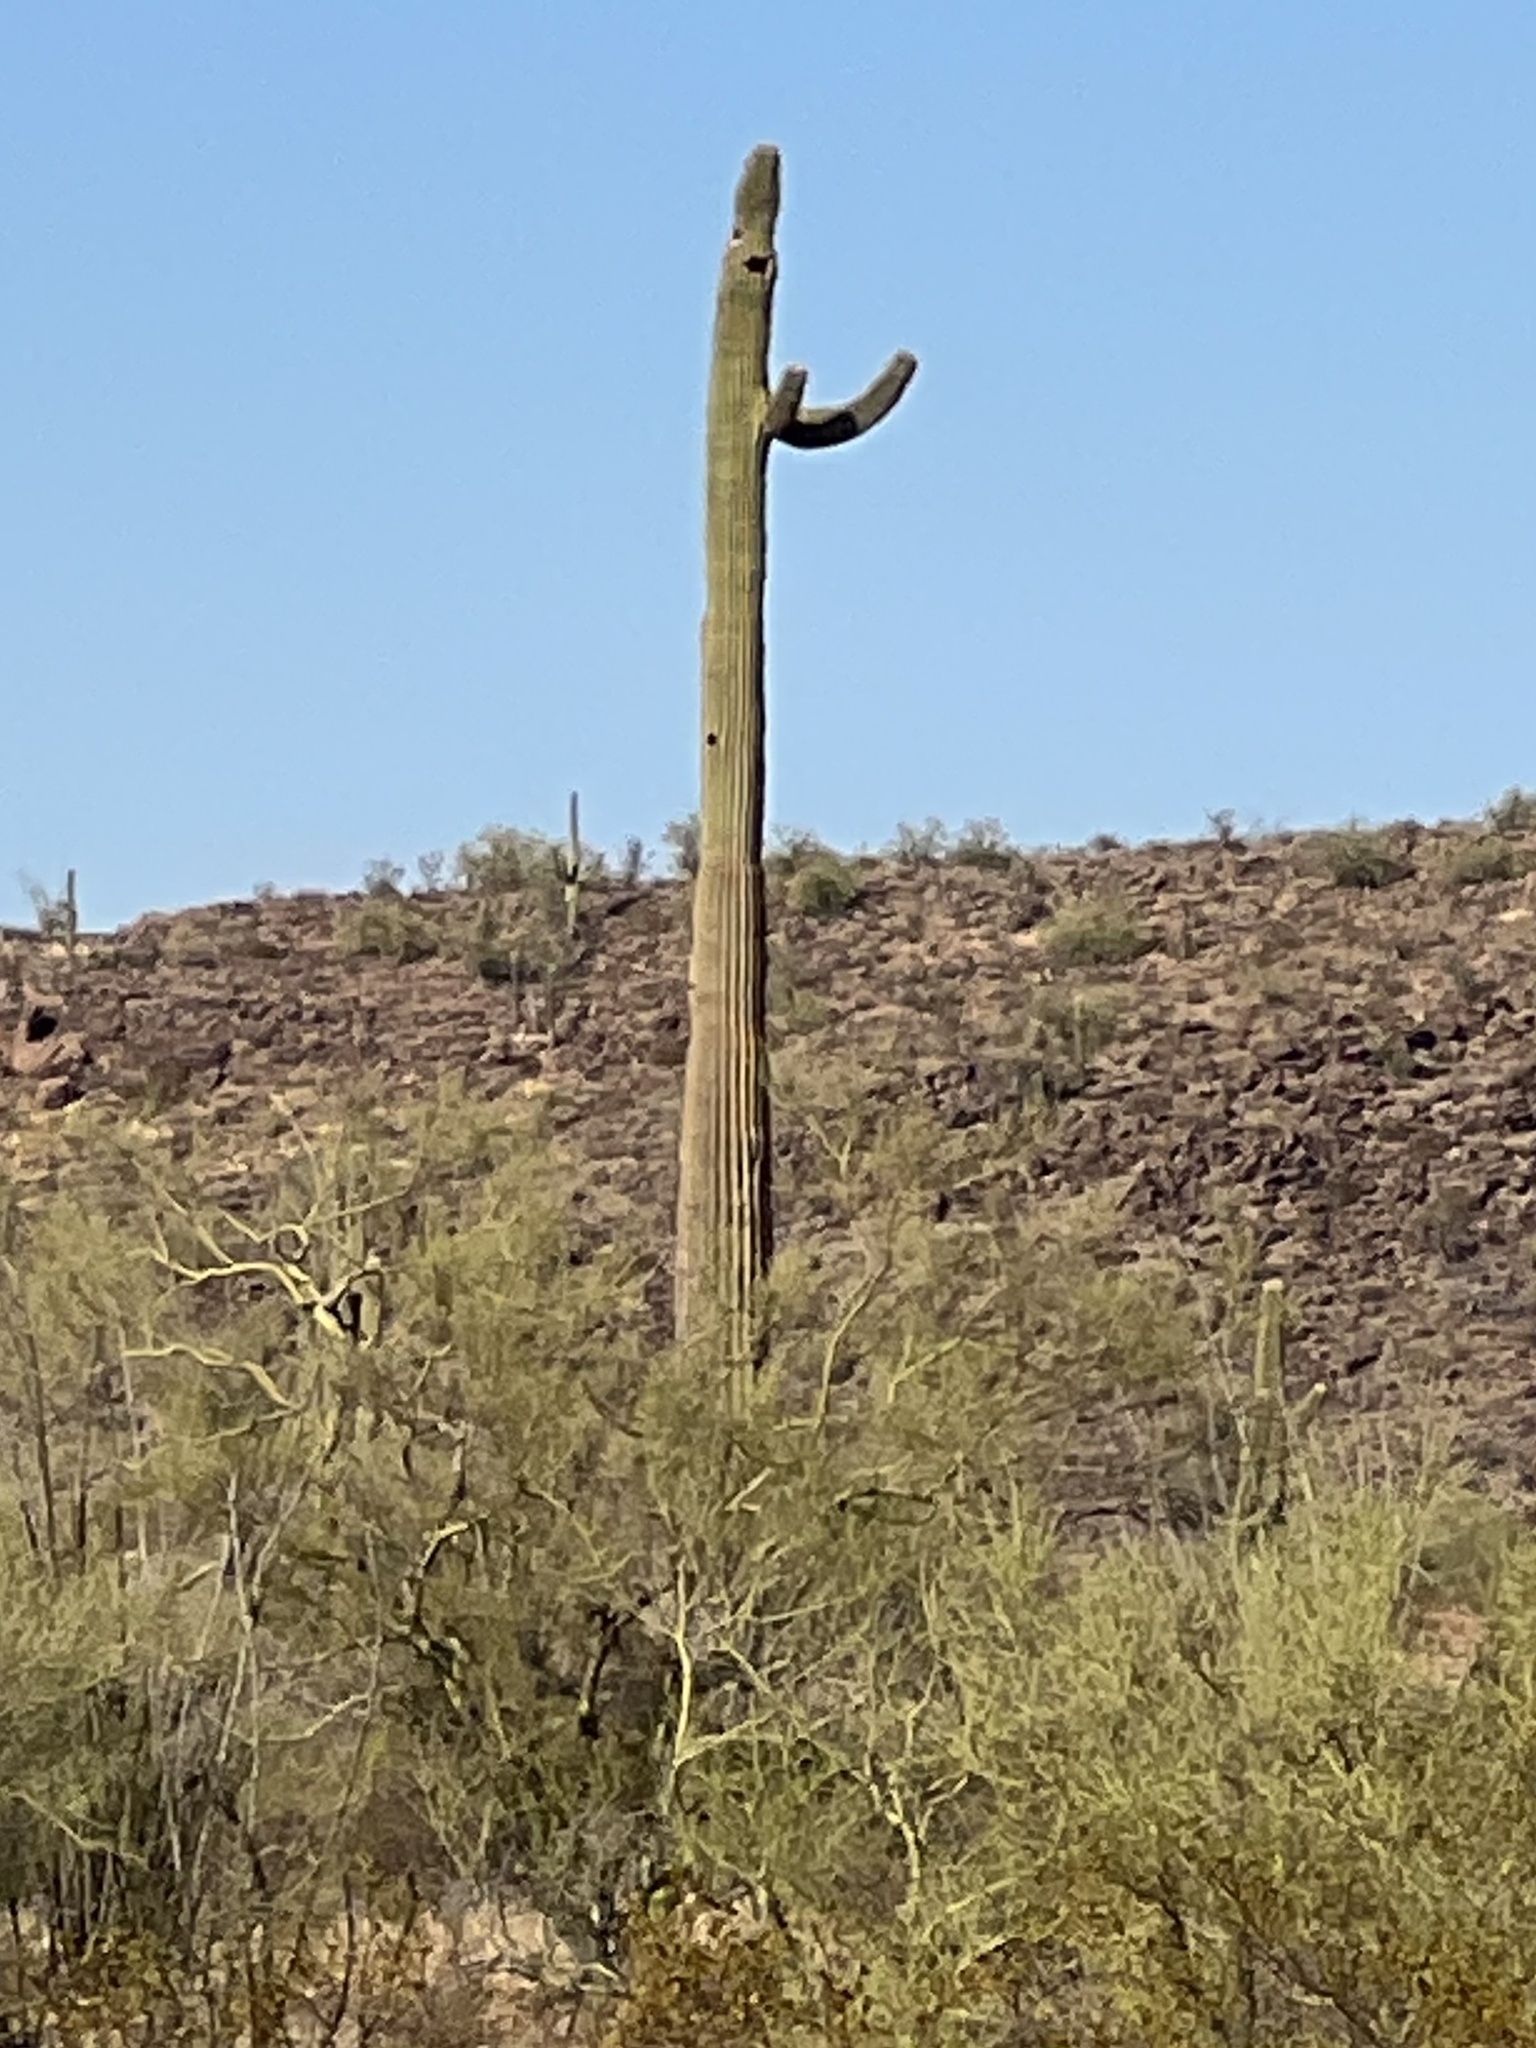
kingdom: Plantae
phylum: Tracheophyta
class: Magnoliopsida
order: Caryophyllales
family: Cactaceae
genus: Carnegiea
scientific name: Carnegiea gigantea
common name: Saguaro
